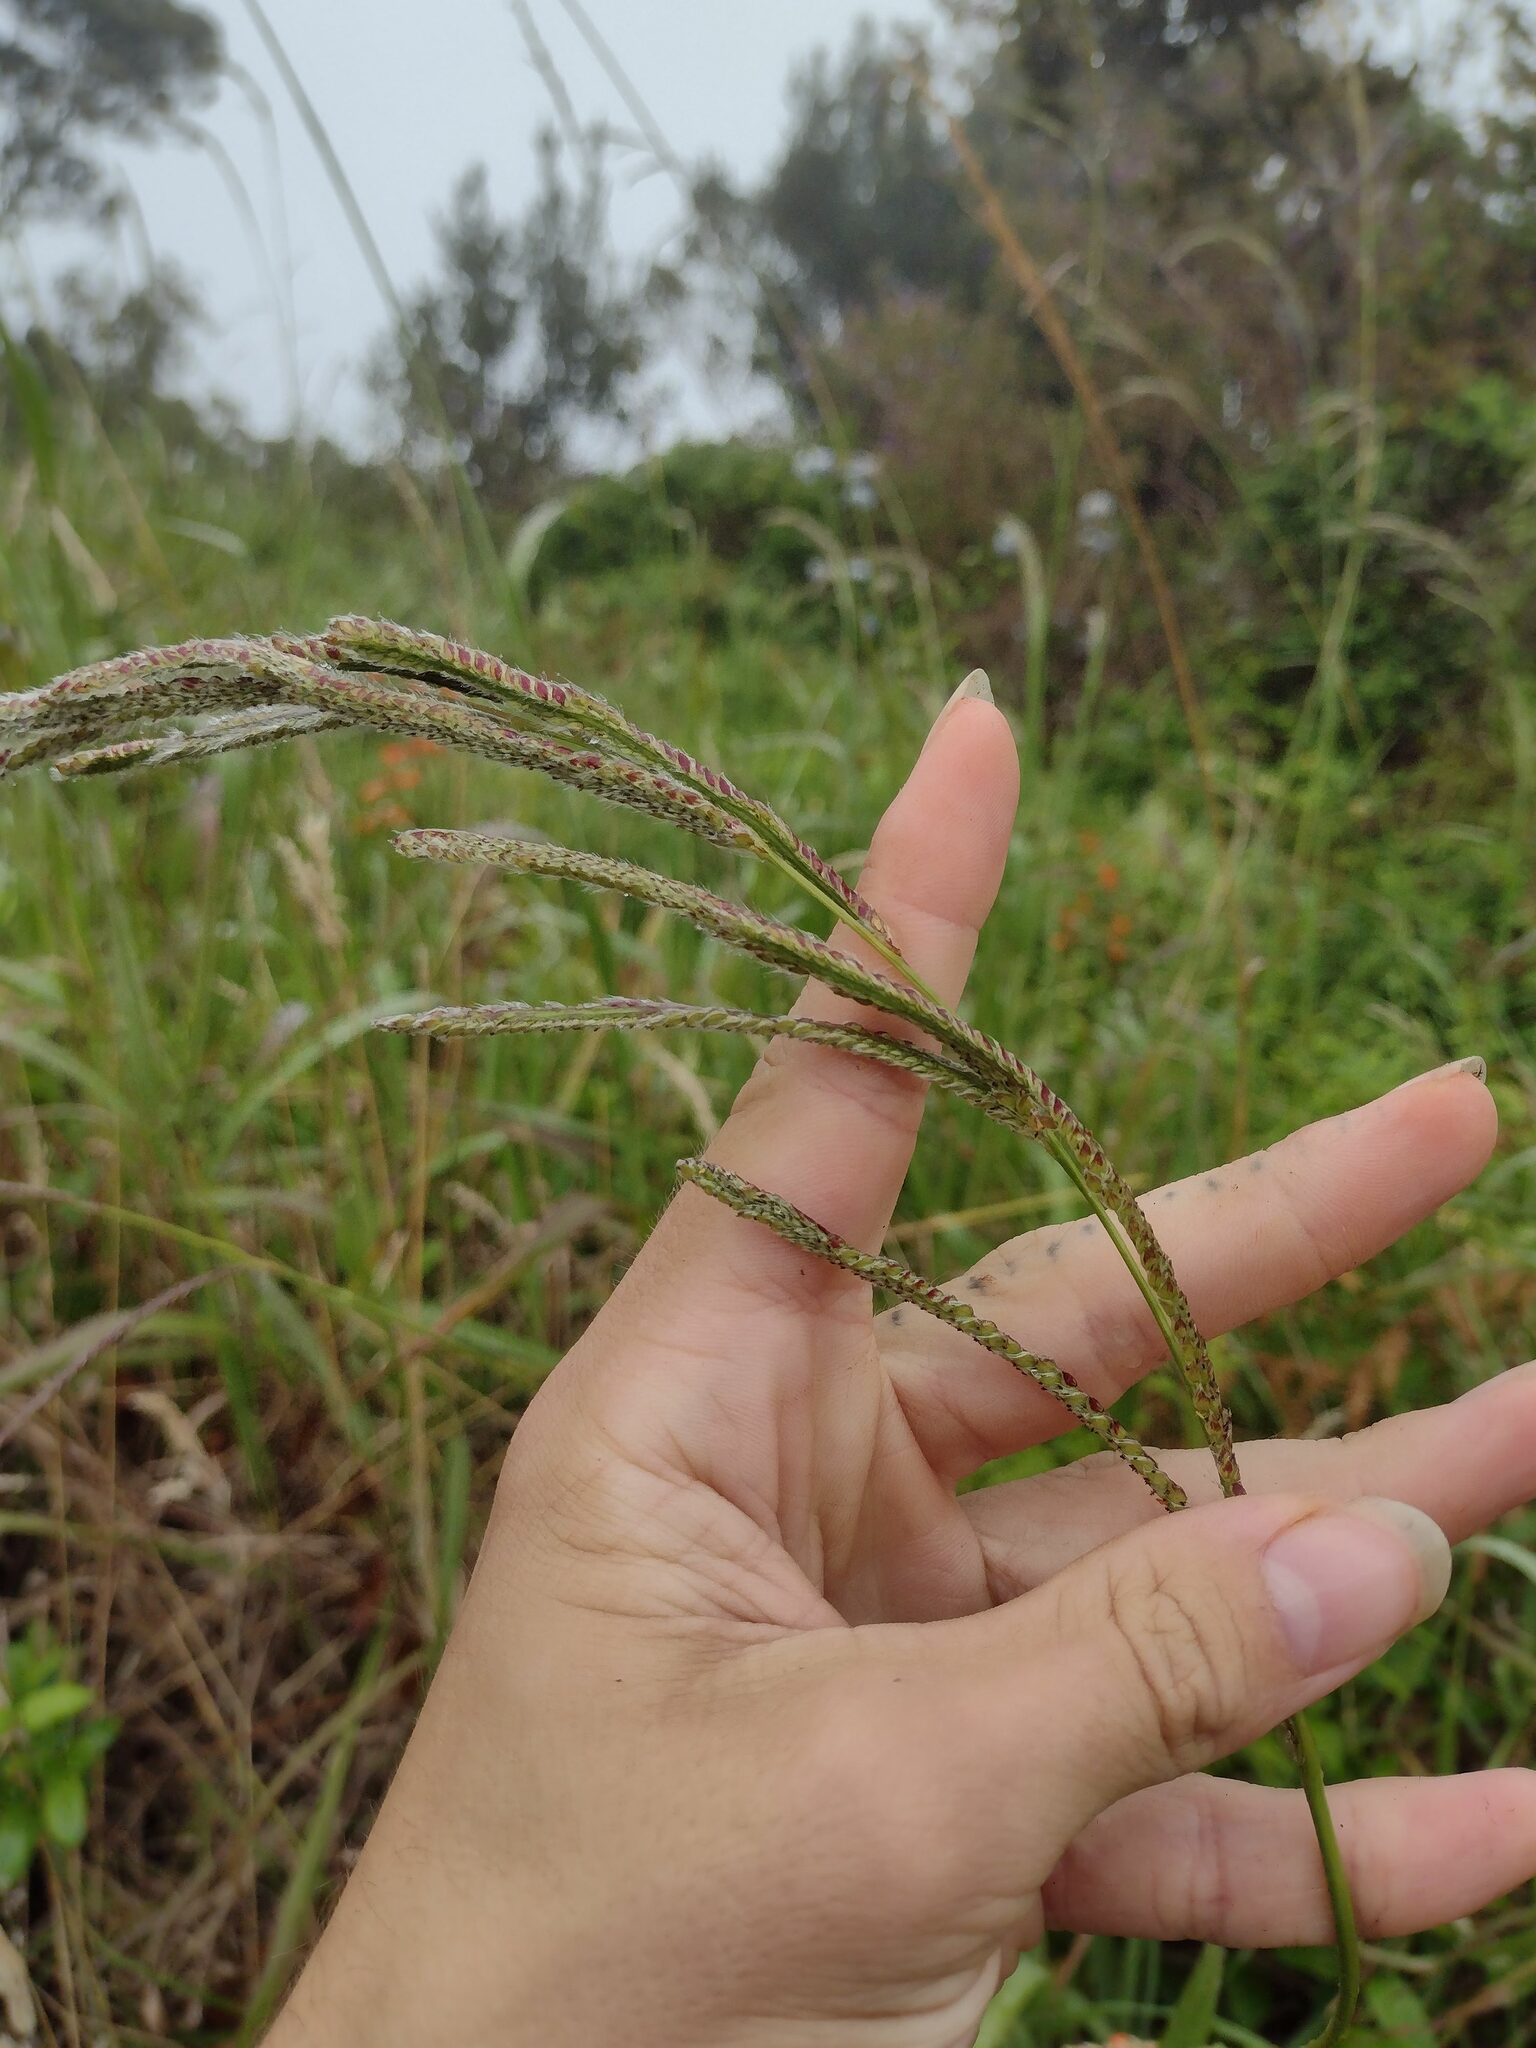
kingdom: Plantae
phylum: Tracheophyta
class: Liliopsida
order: Poales
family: Poaceae
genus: Paspalum
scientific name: Paspalum urvillei
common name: Vasey's grass
